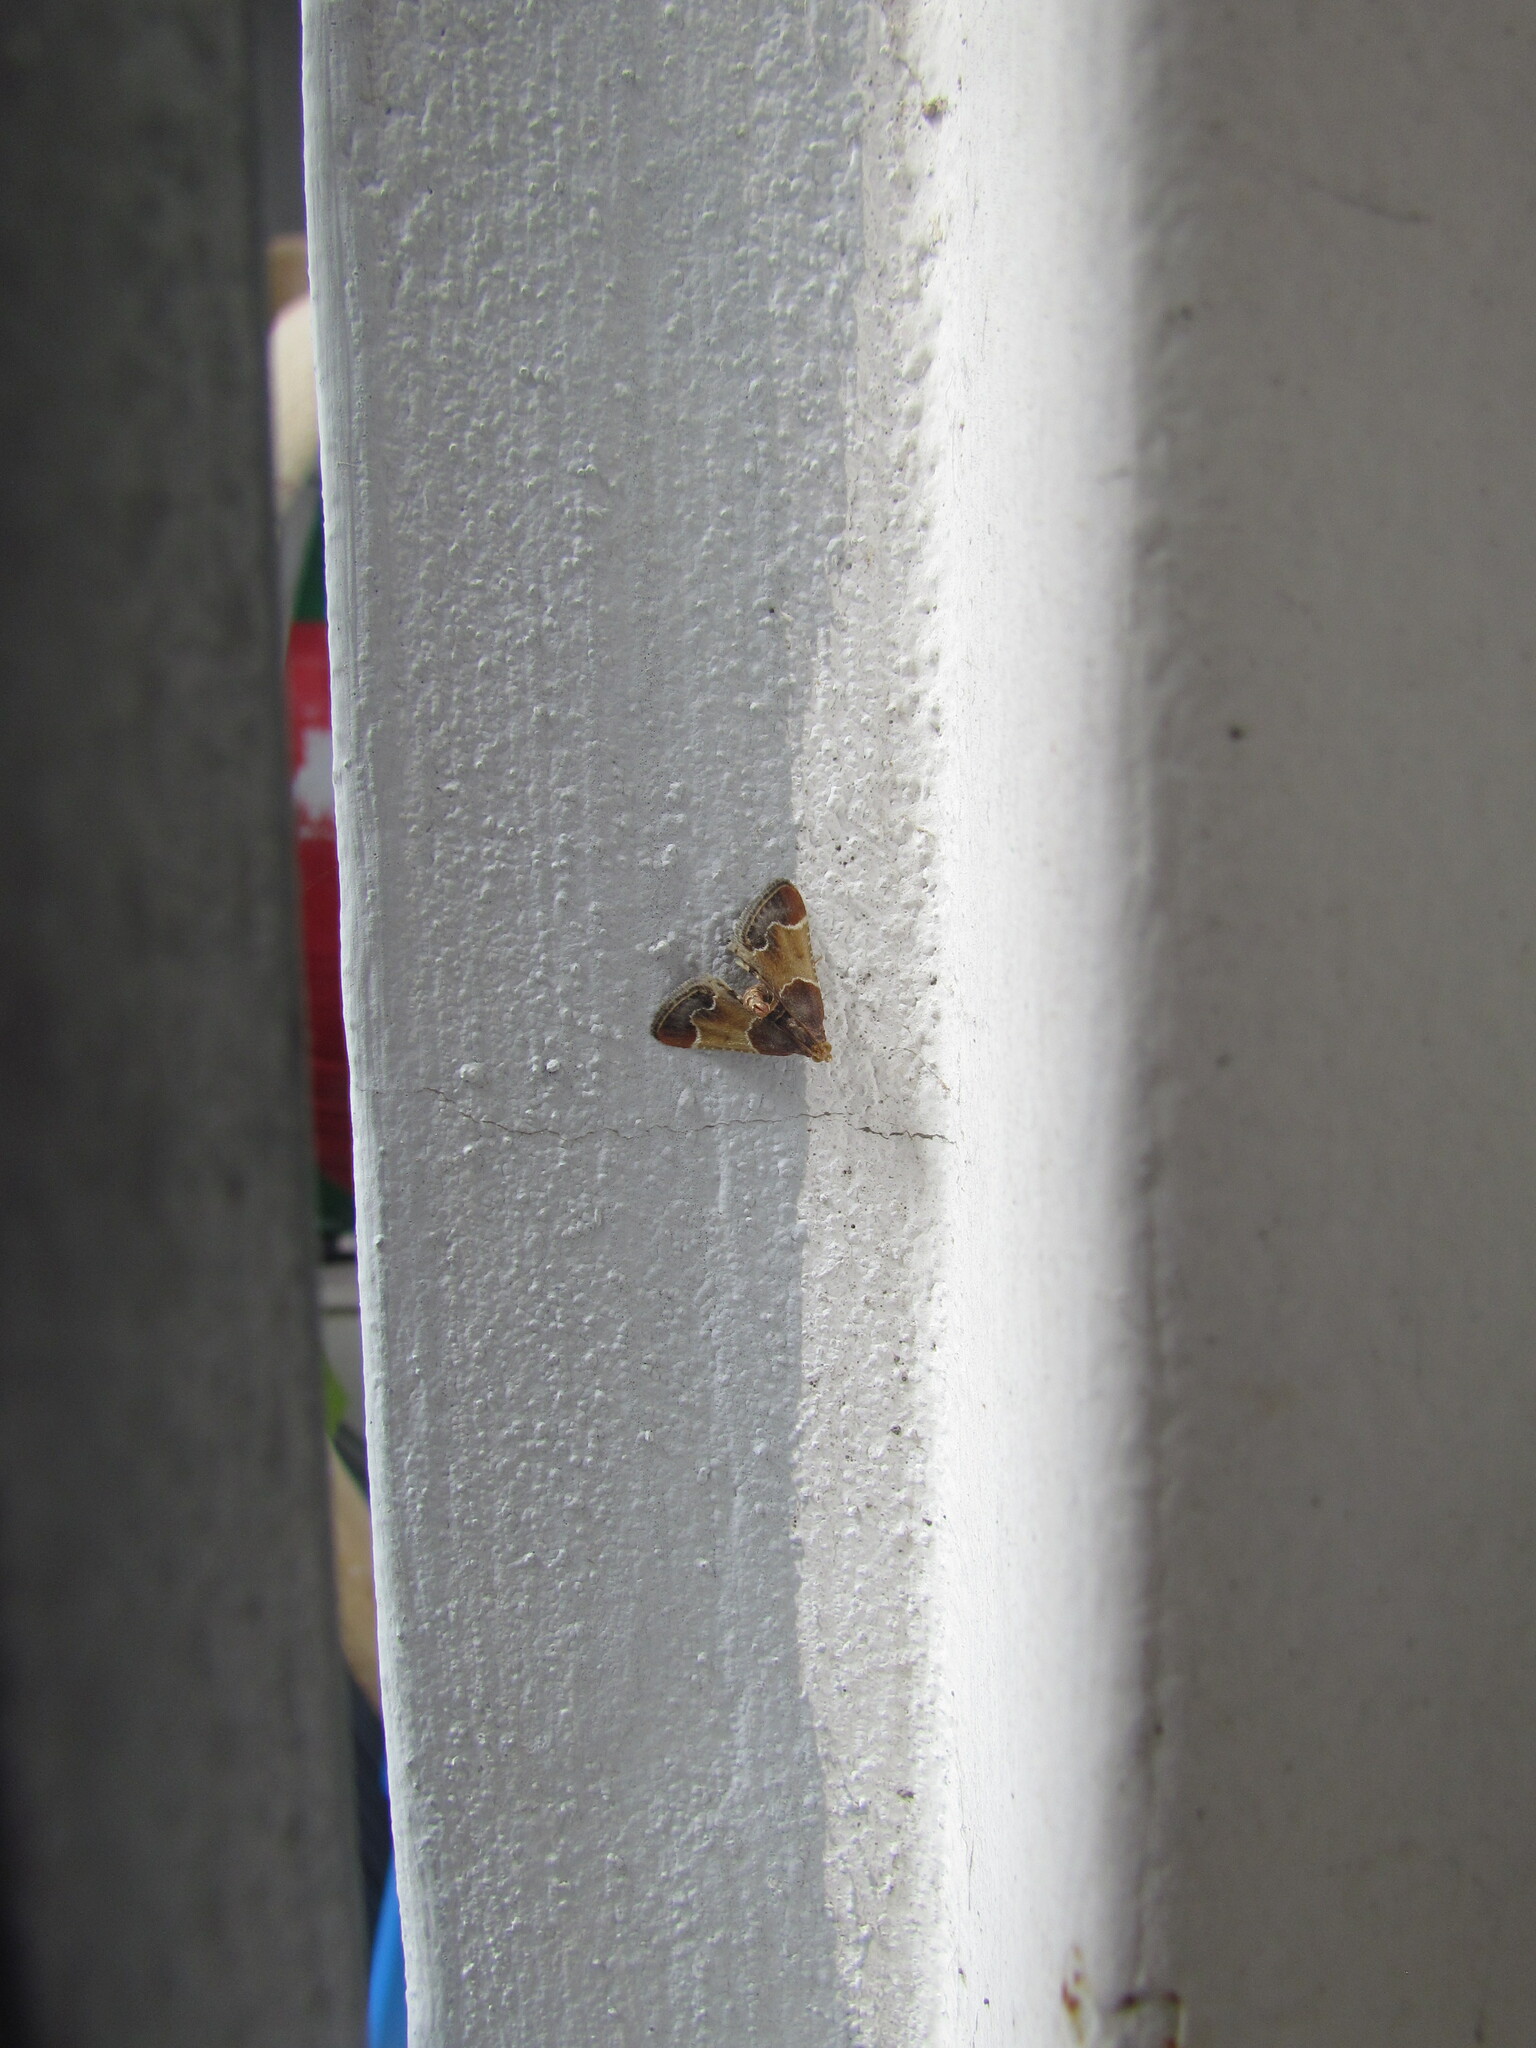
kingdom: Animalia
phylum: Arthropoda
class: Insecta
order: Lepidoptera
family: Pyralidae
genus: Pyralis
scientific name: Pyralis farinalis
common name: Meal moth
